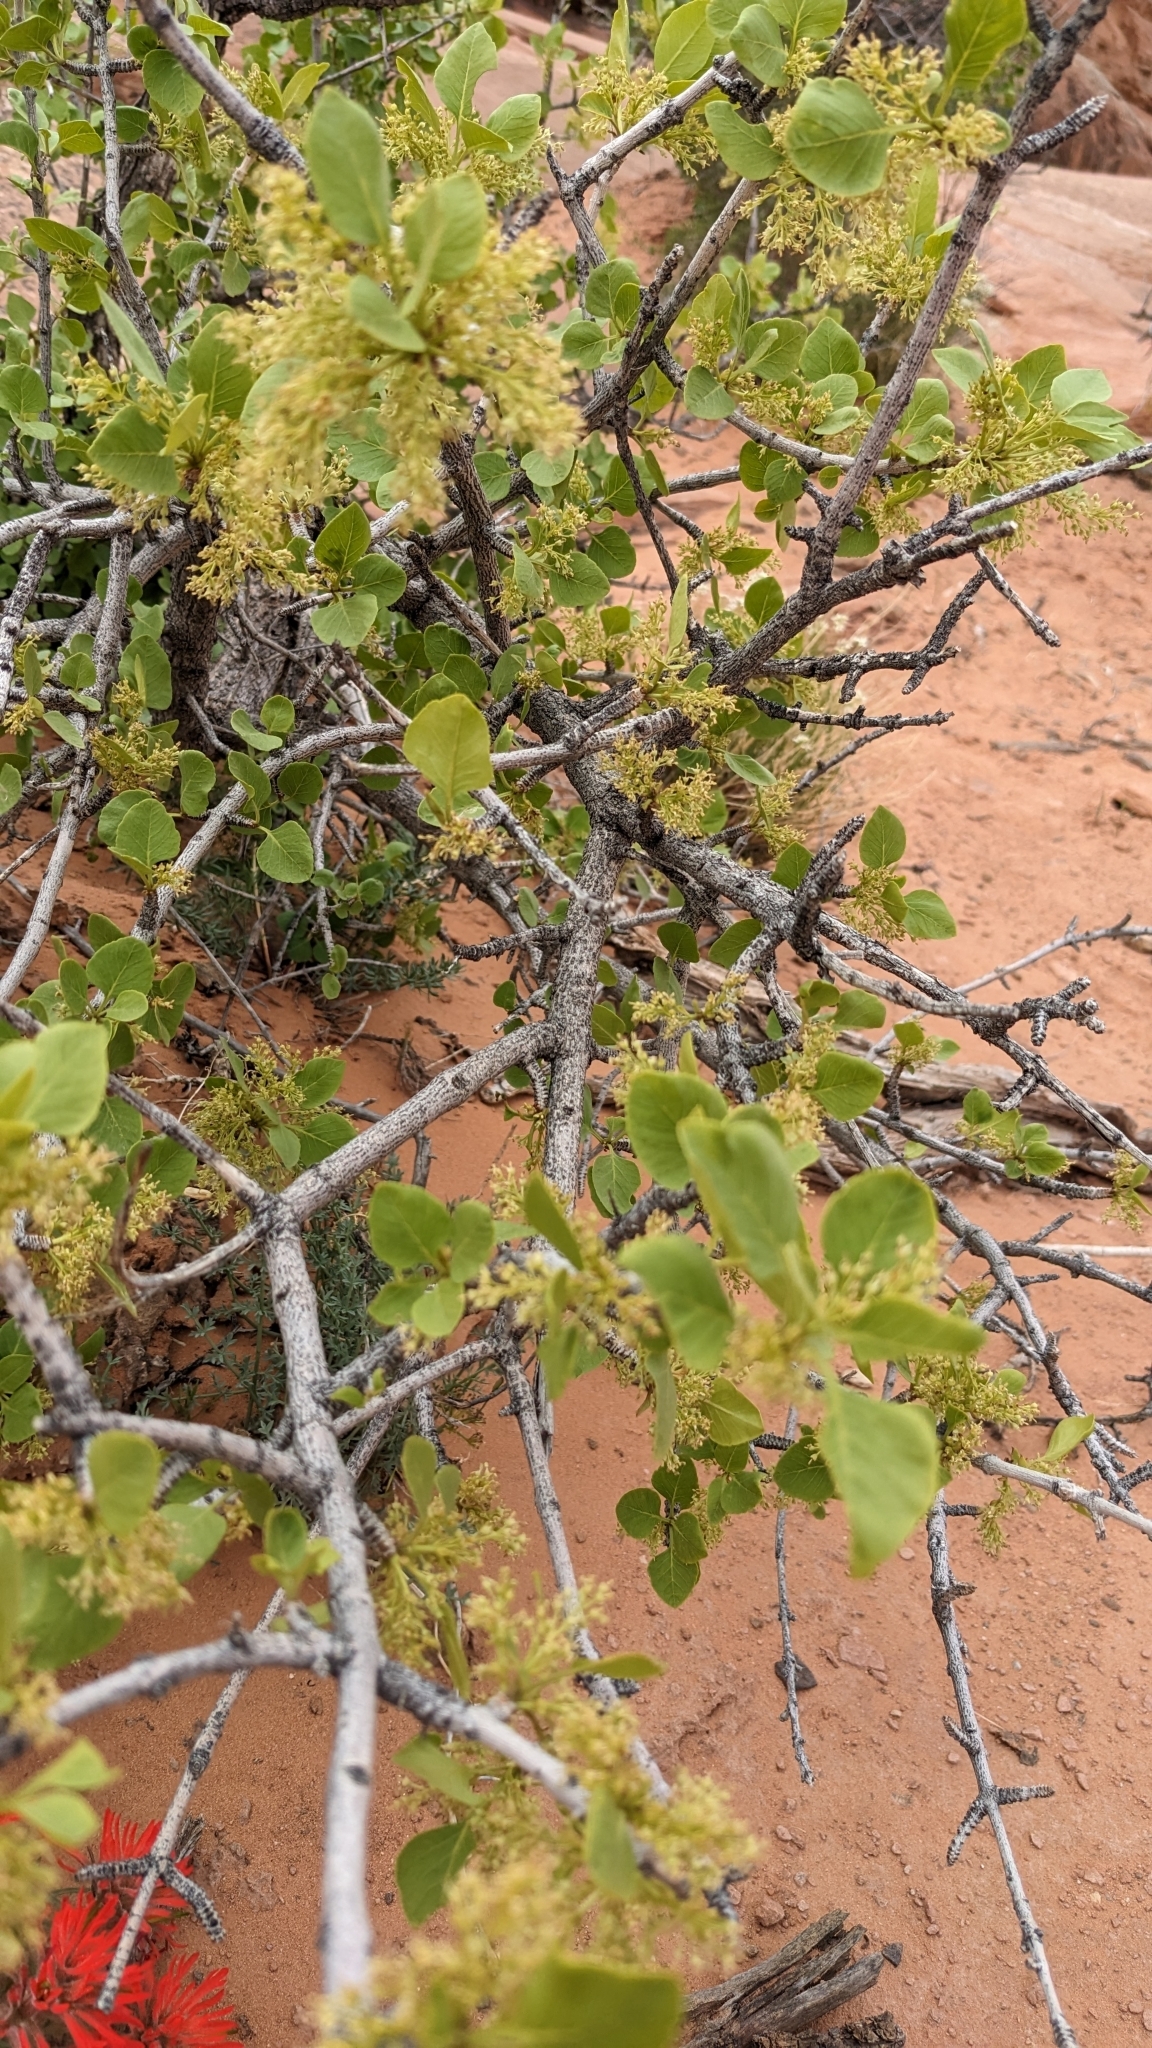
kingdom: Plantae
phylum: Tracheophyta
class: Magnoliopsida
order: Lamiales
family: Oleaceae
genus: Fraxinus
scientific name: Fraxinus anomala
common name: Utah ash
